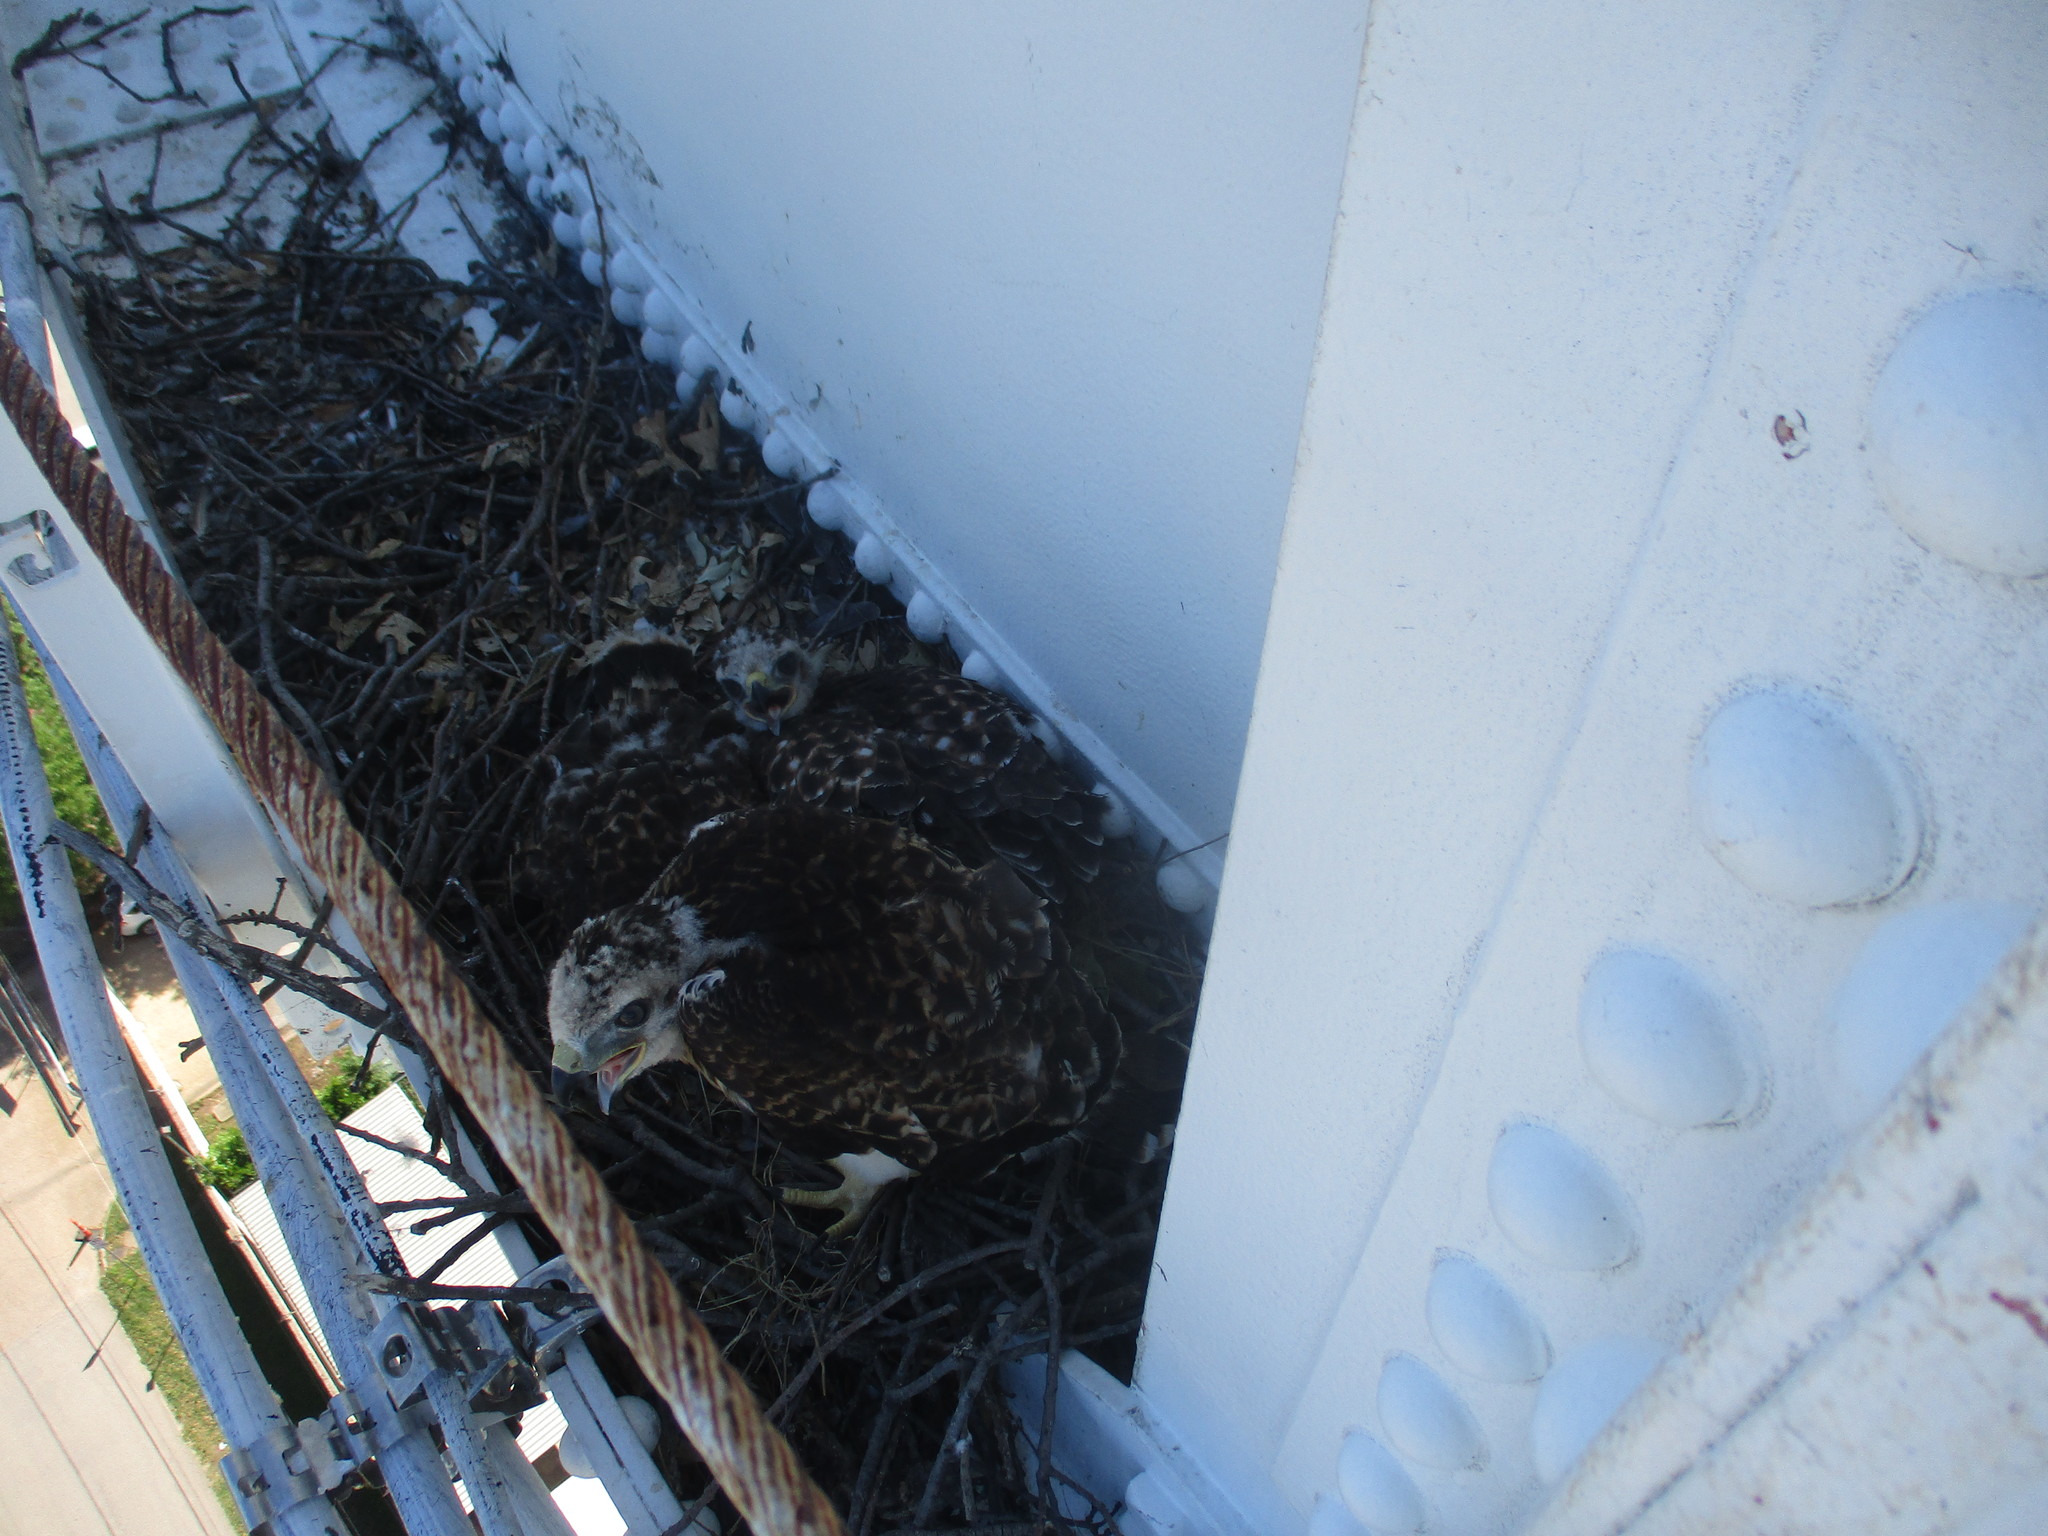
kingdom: Animalia
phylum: Chordata
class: Aves
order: Accipitriformes
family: Accipitridae
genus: Buteo
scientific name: Buteo jamaicensis
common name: Red-tailed hawk
